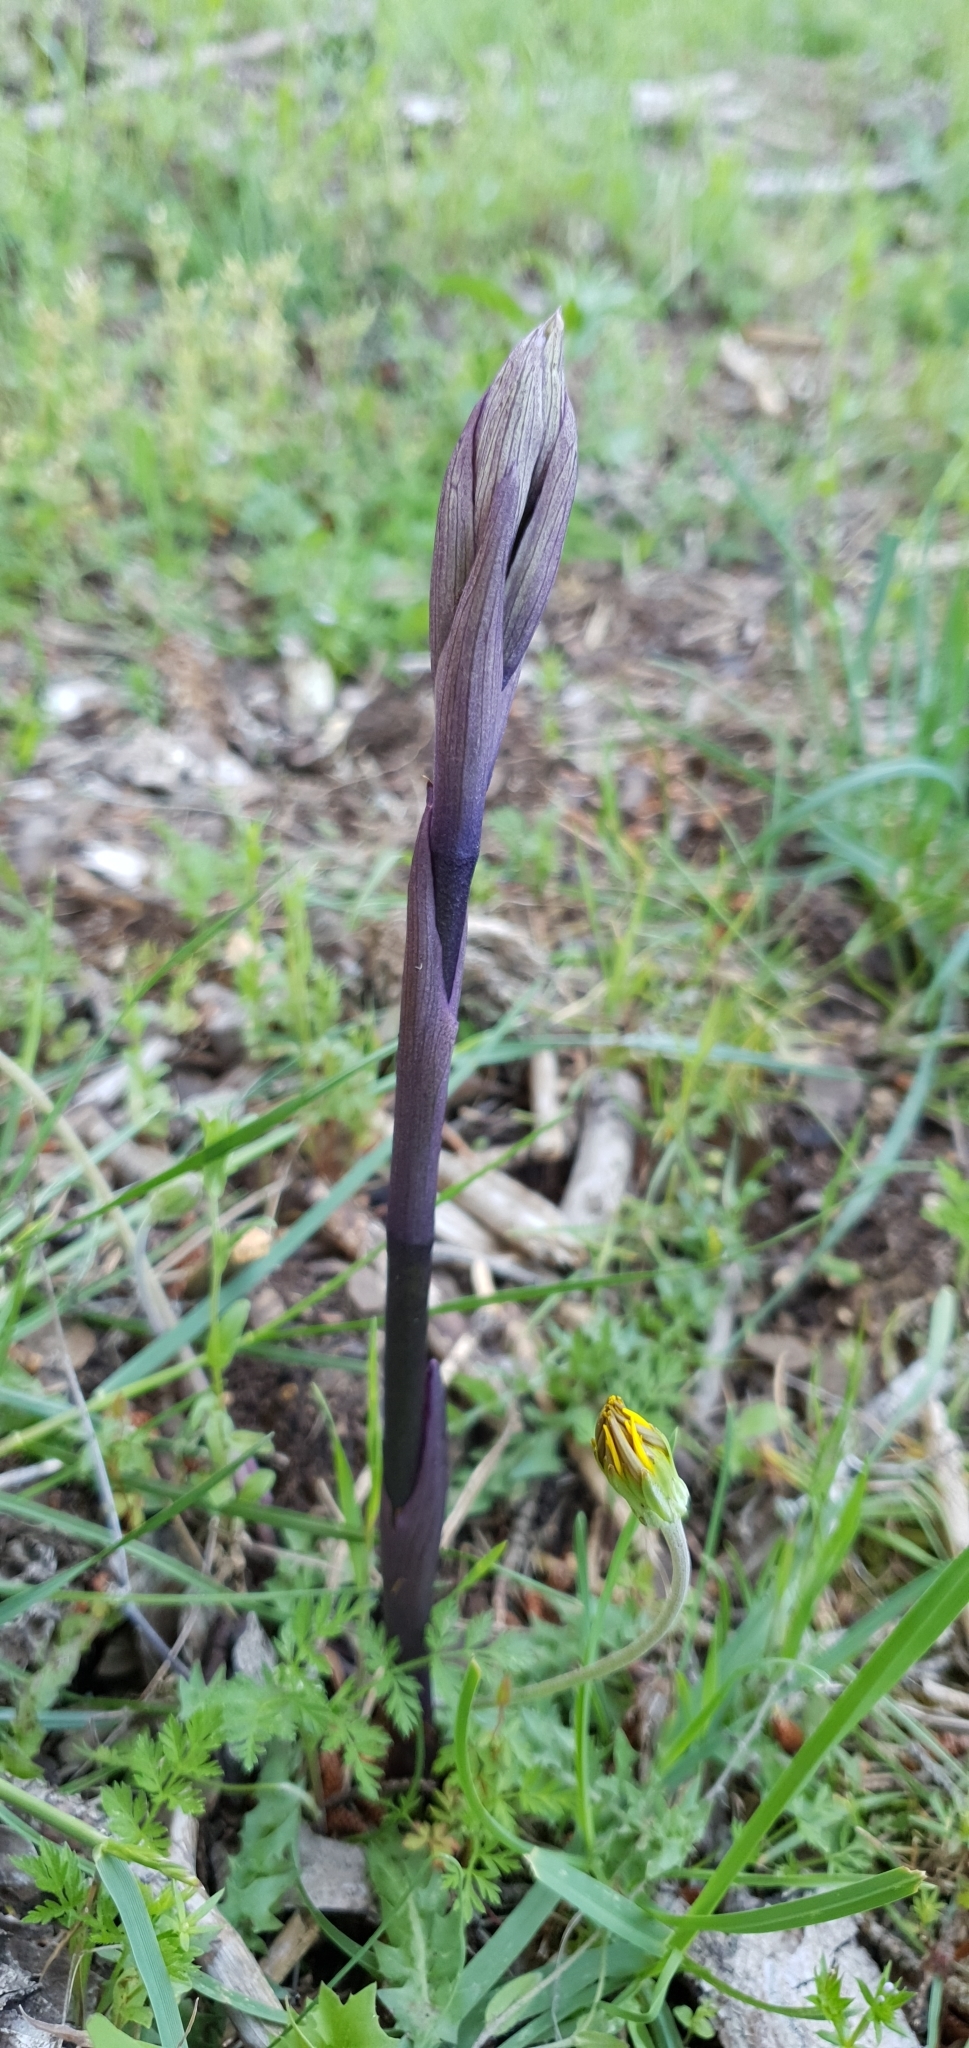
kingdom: Plantae
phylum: Tracheophyta
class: Liliopsida
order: Asparagales
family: Orchidaceae
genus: Limodorum
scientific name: Limodorum abortivum
